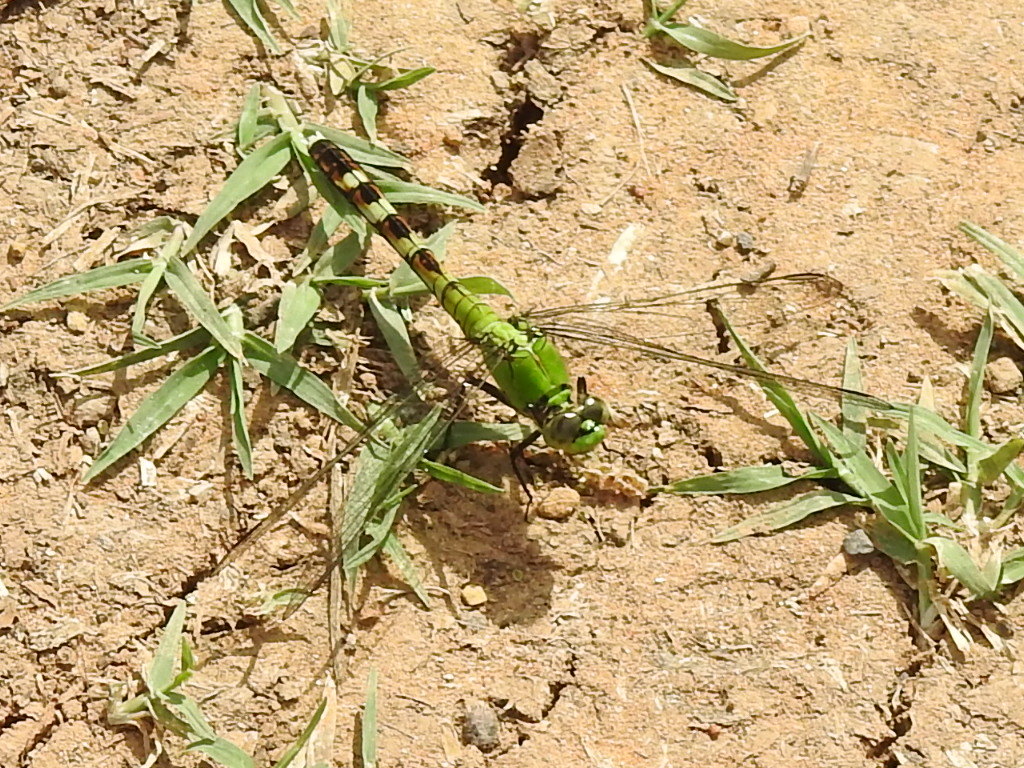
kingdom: Animalia
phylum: Arthropoda
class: Insecta
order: Odonata
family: Libellulidae
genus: Erythemis
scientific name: Erythemis simplicicollis
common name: Eastern pondhawk
